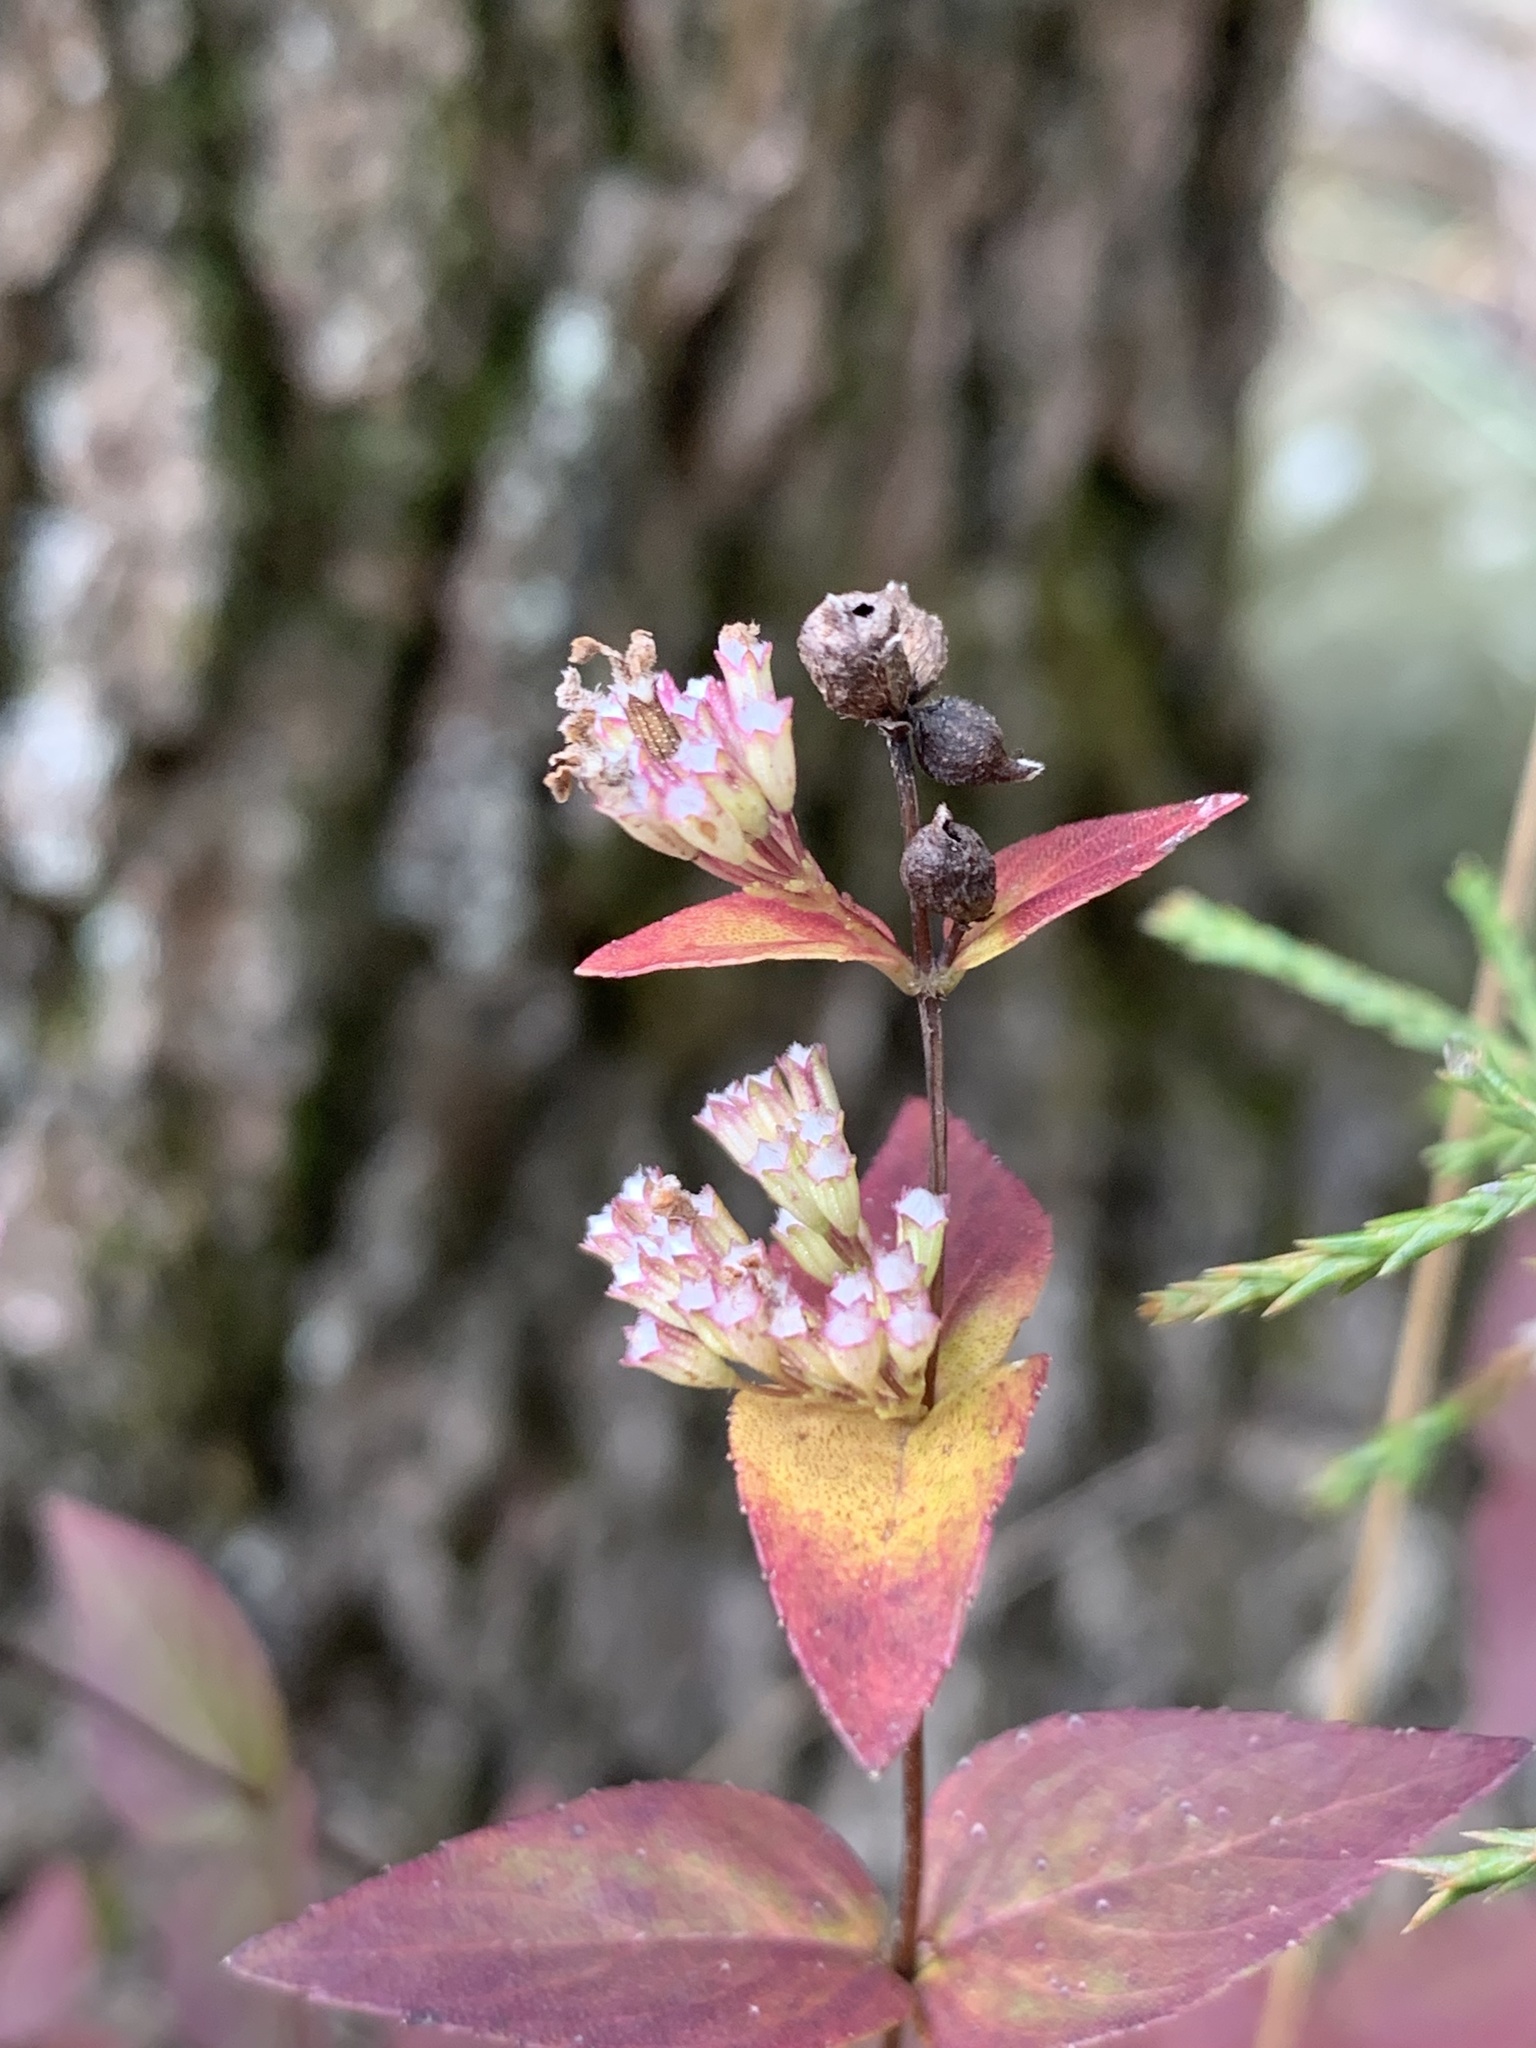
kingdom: Plantae
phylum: Tracheophyta
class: Magnoliopsida
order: Lamiales
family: Lamiaceae
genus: Cunila
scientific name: Cunila origanoides
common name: American dittany
